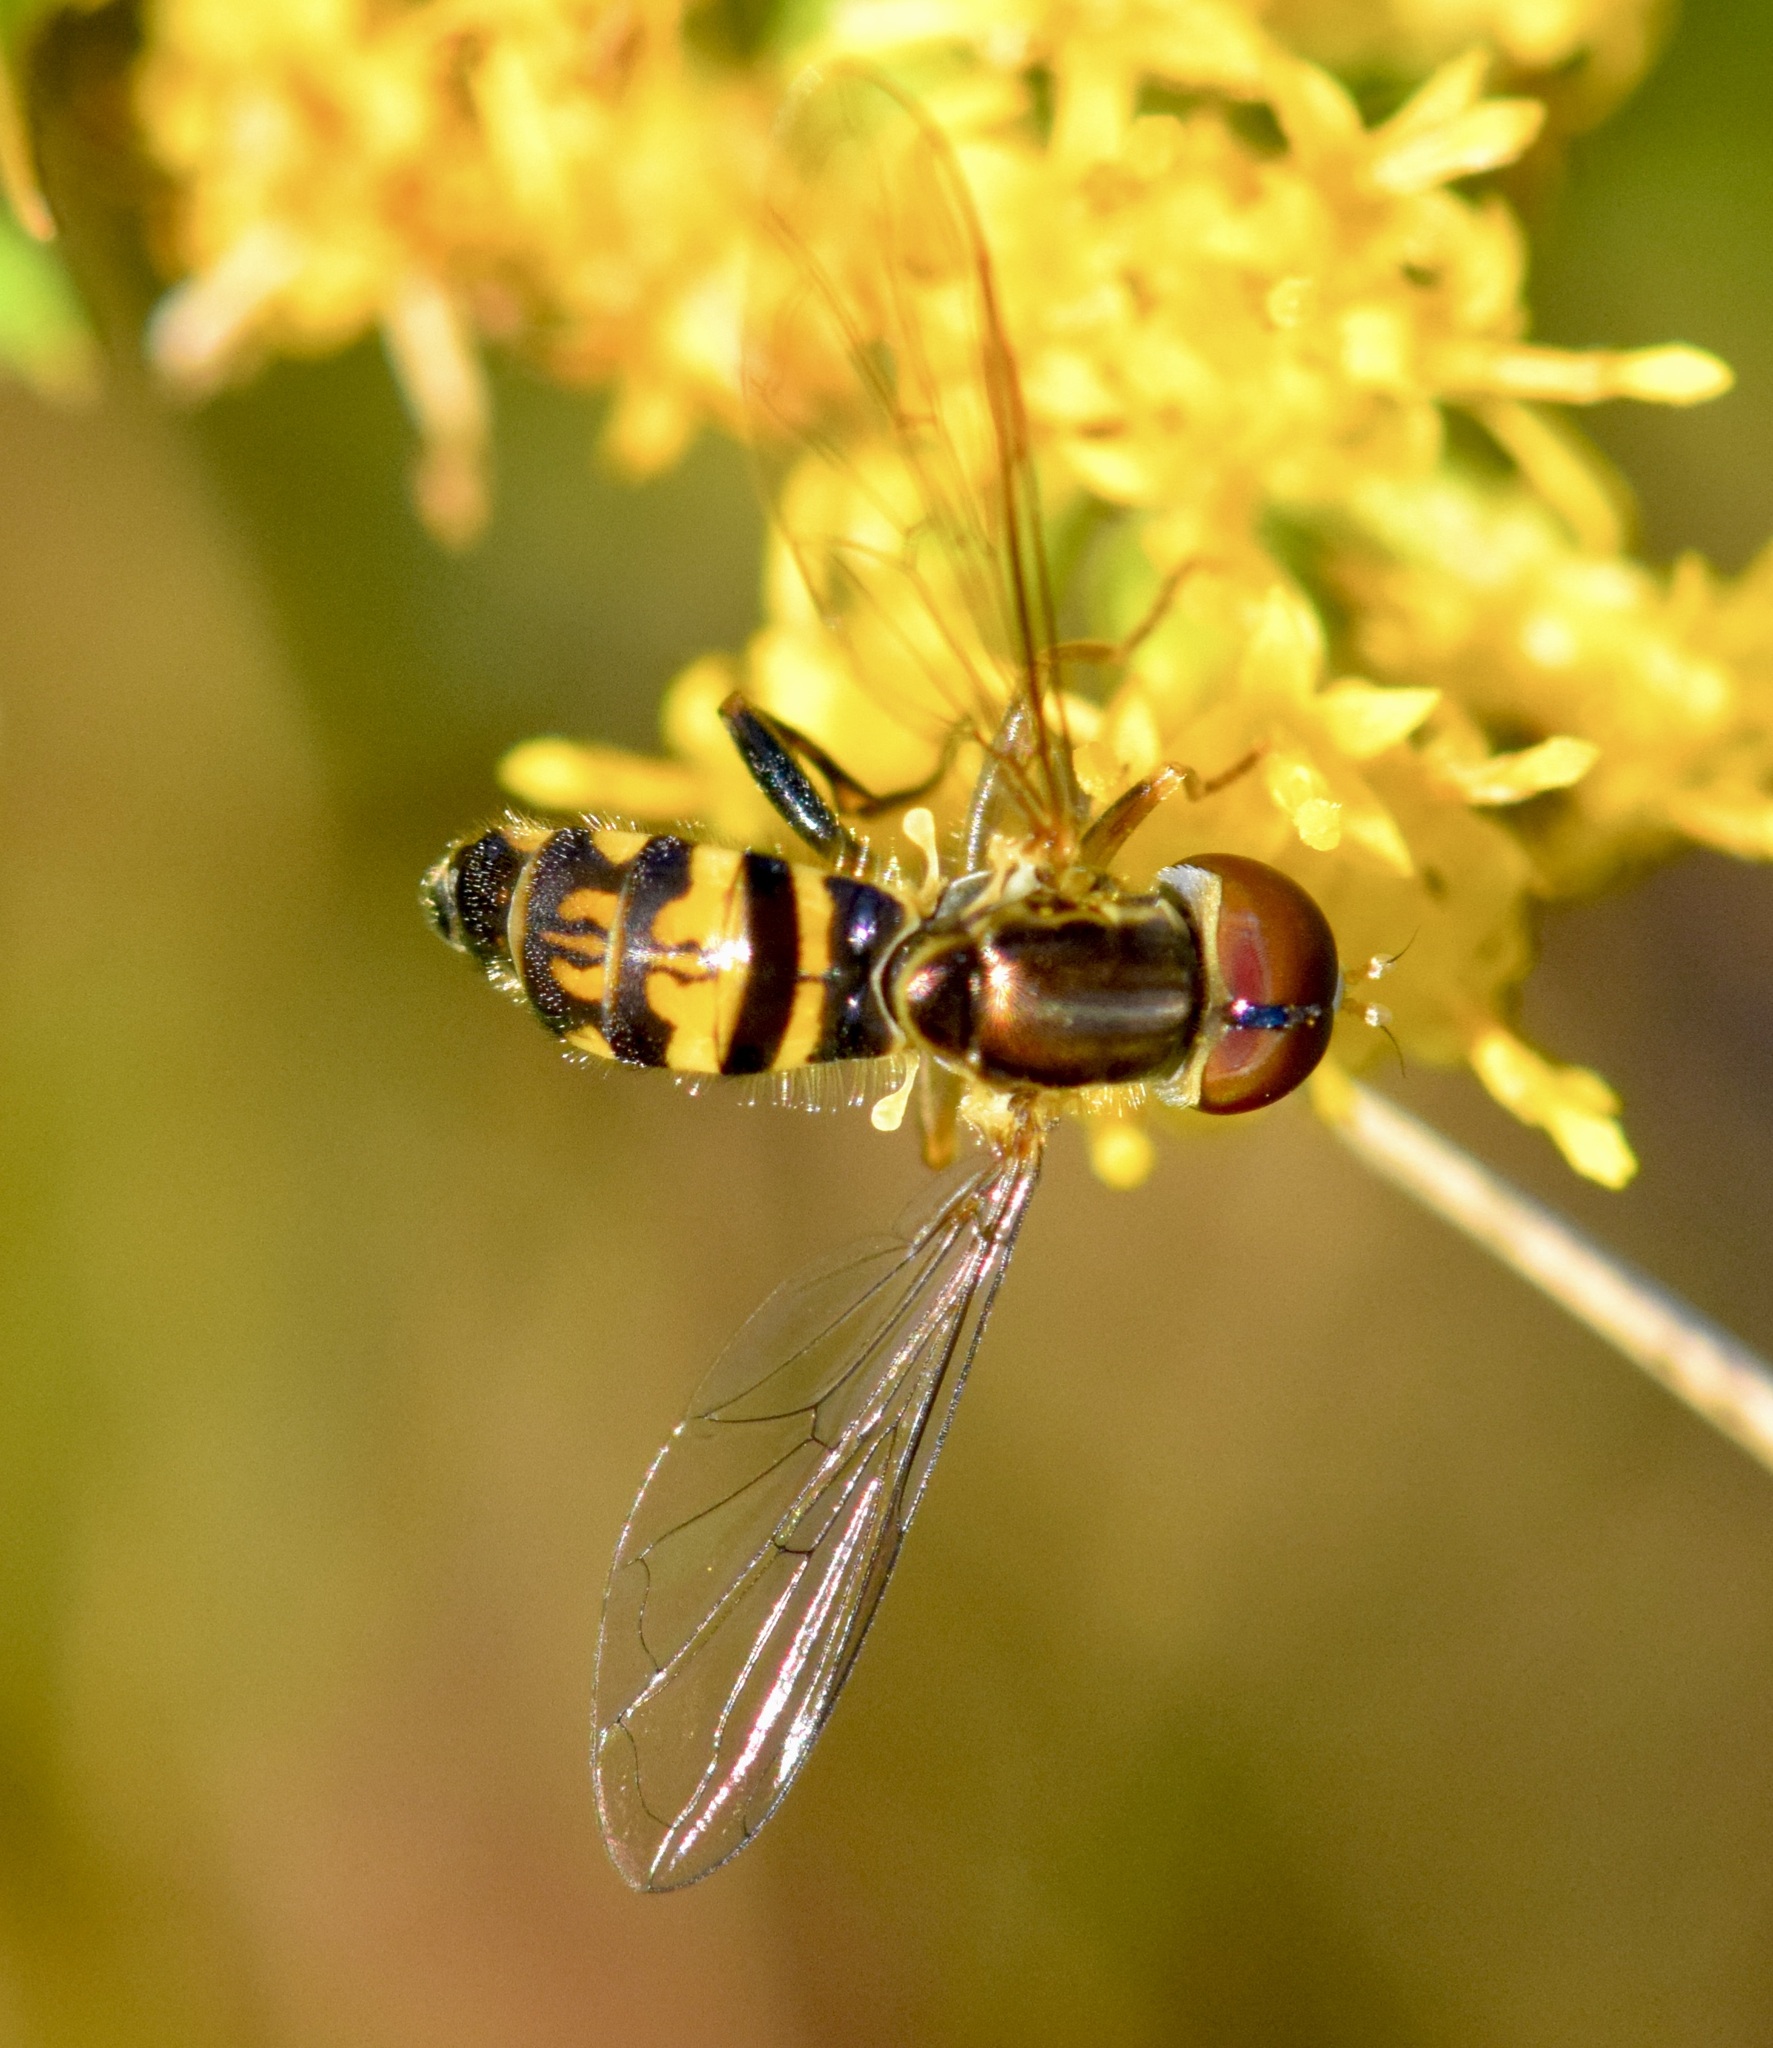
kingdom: Animalia
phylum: Arthropoda
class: Insecta
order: Diptera
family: Syrphidae
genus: Toxomerus
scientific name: Toxomerus geminatus
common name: Eastern calligrapher
